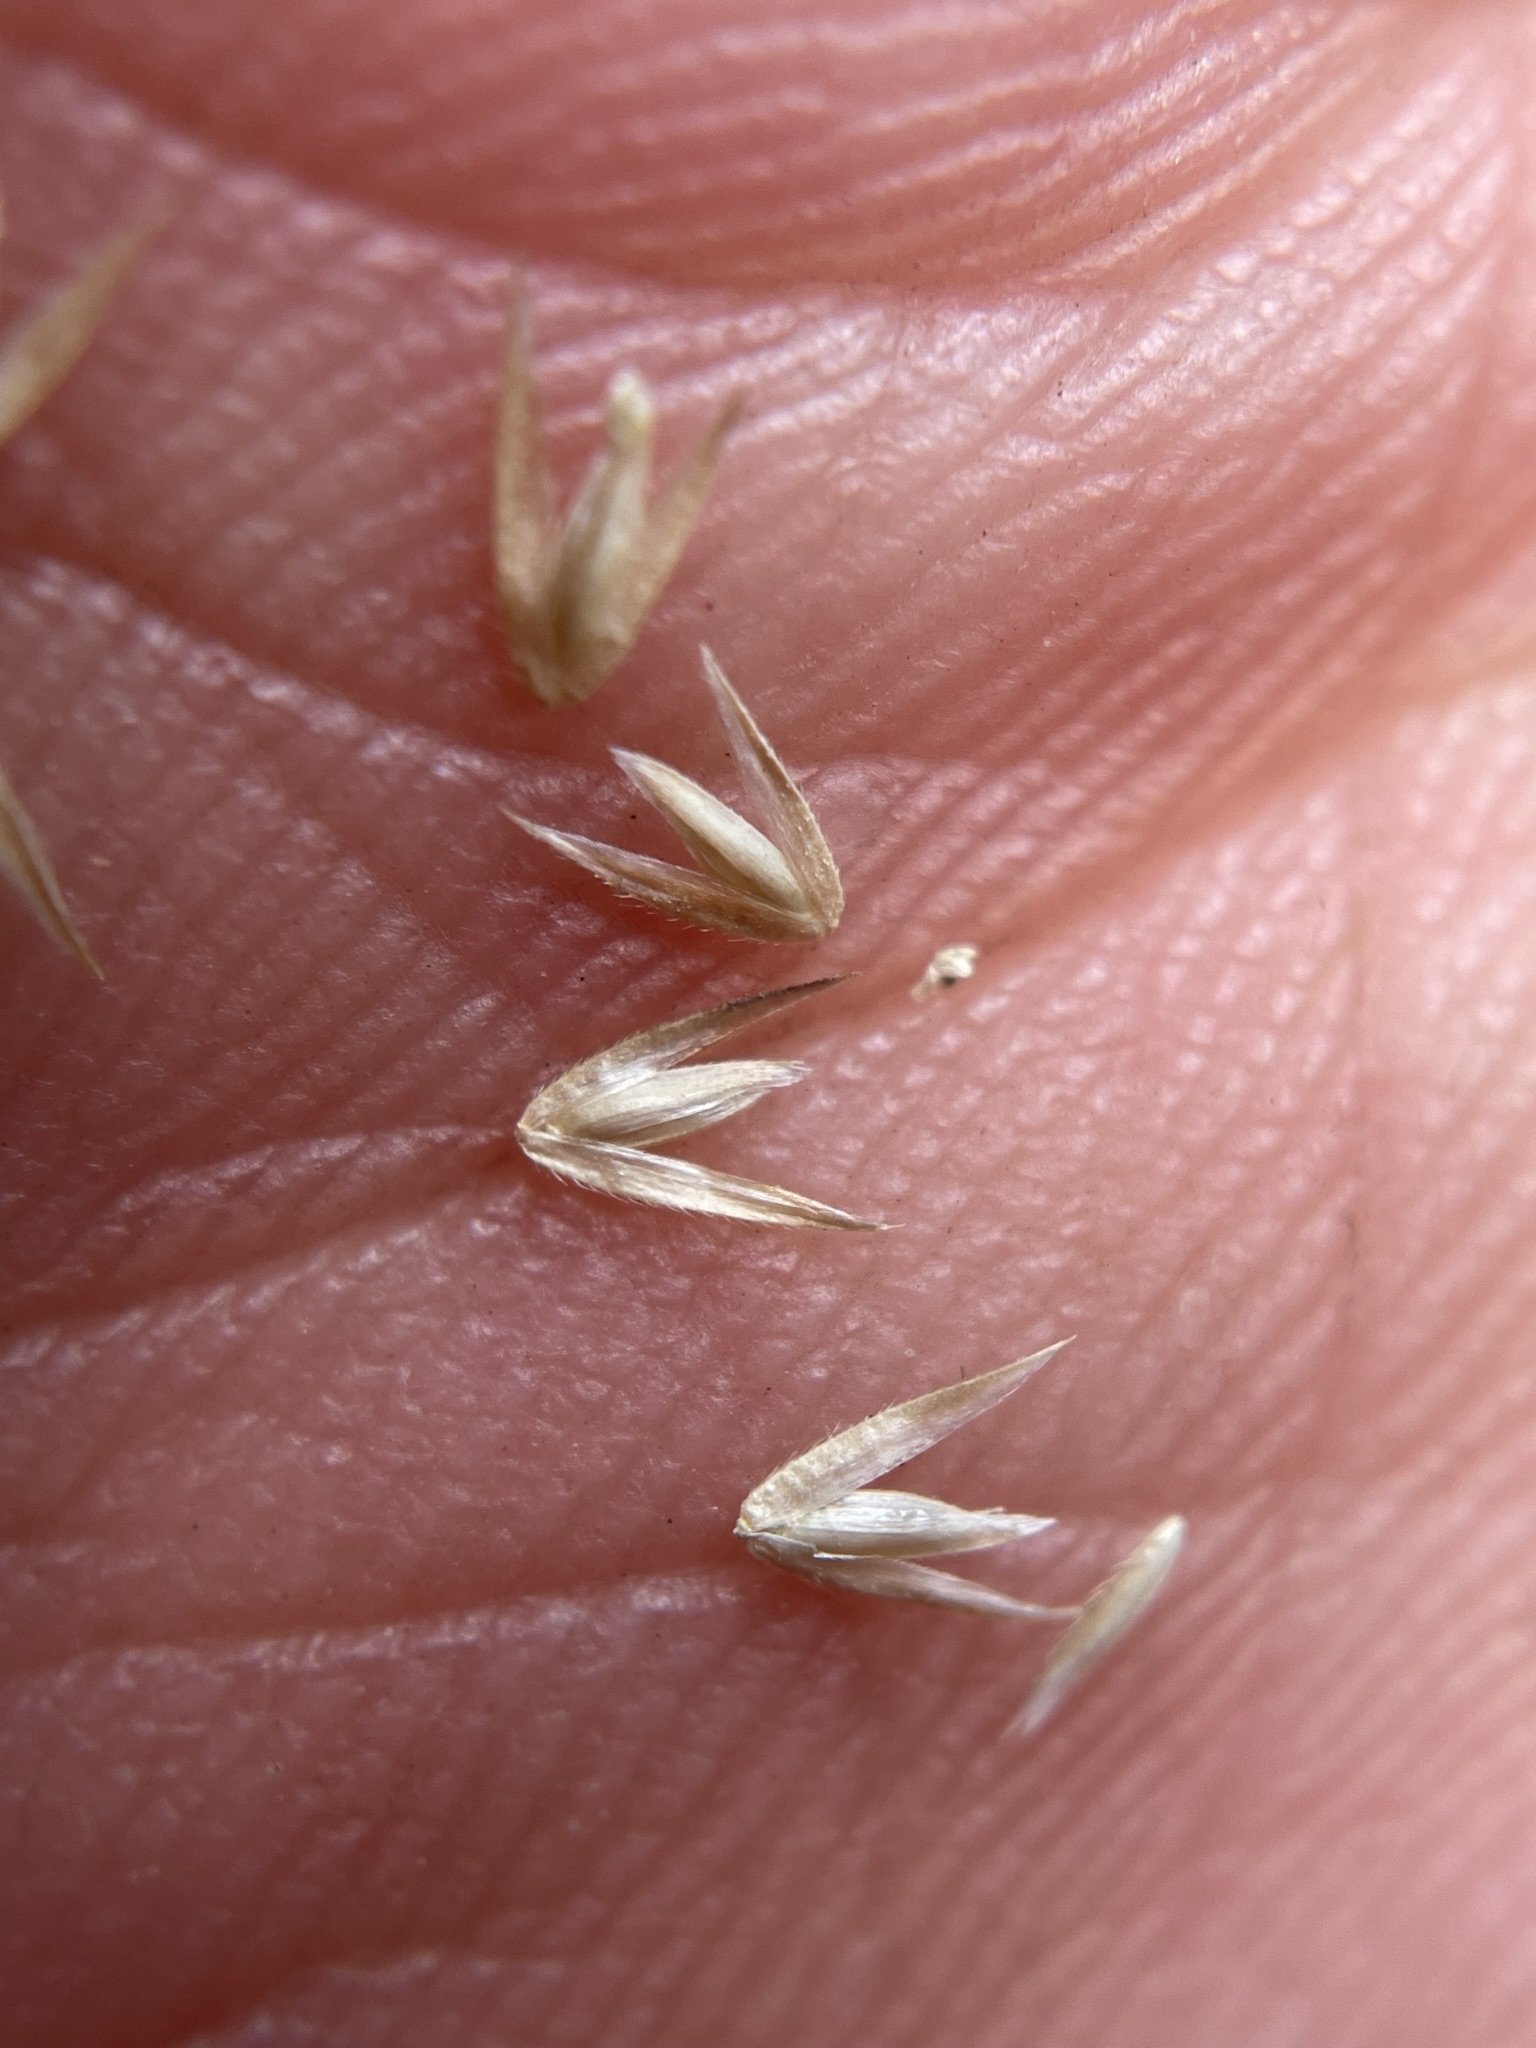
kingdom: Plantae
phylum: Tracheophyta
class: Liliopsida
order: Poales
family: Poaceae
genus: Cinna
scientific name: Cinna latifolia
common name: Drooping woodreed
